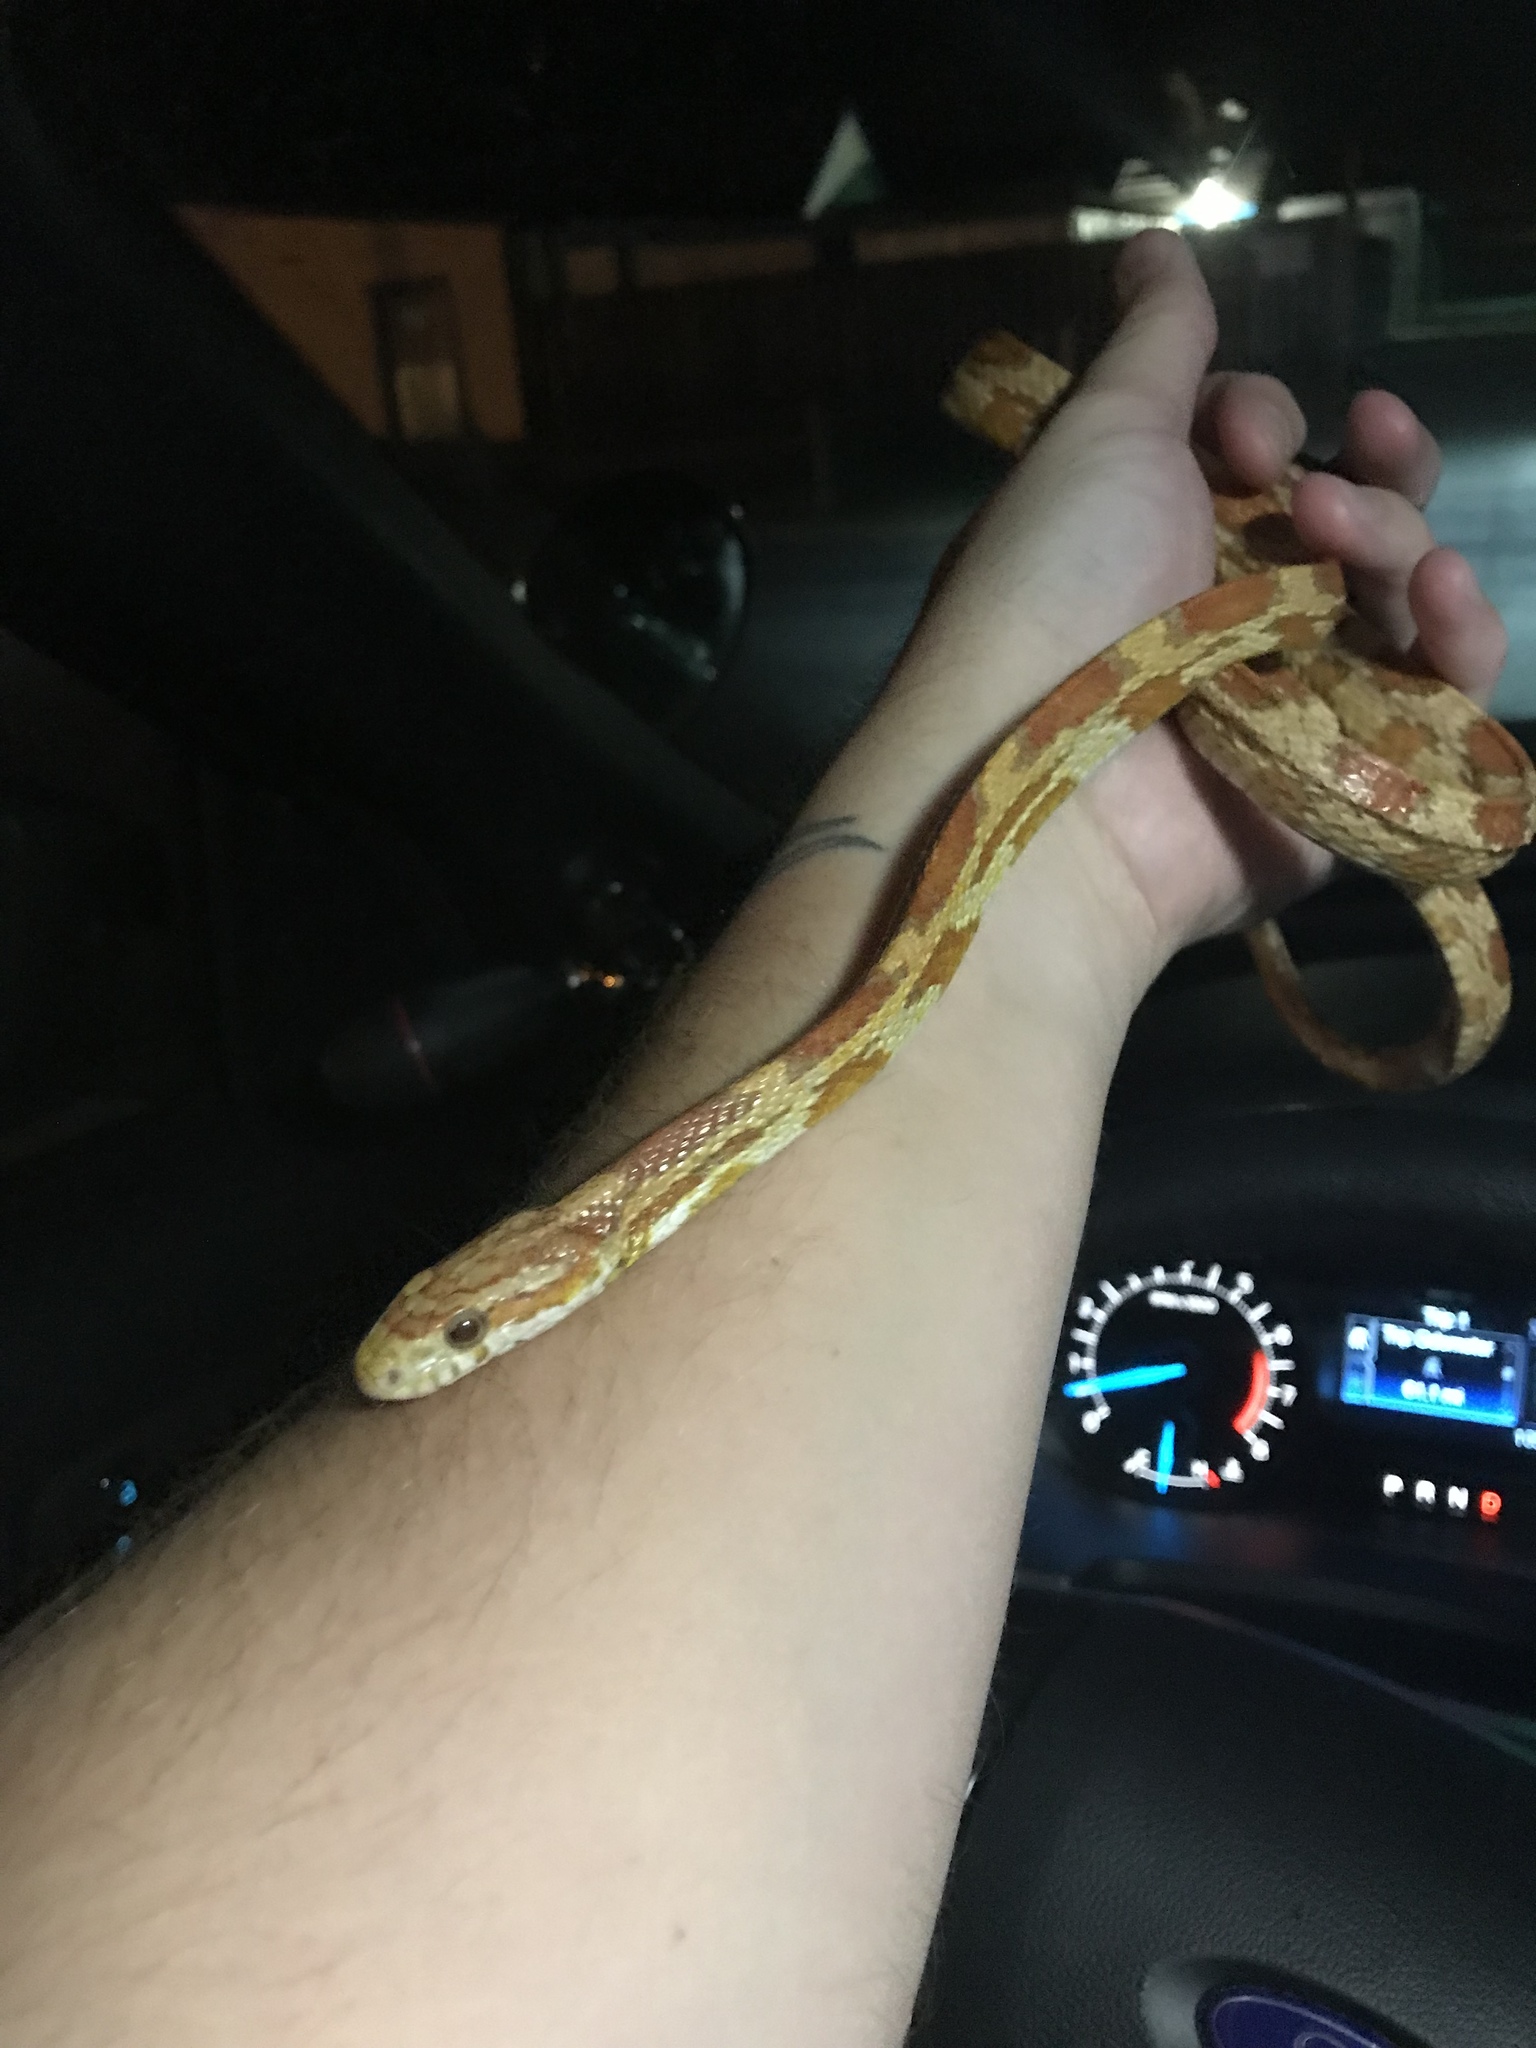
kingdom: Animalia
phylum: Chordata
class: Squamata
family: Colubridae
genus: Pantherophis
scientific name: Pantherophis guttatus
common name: Red cornsnake
